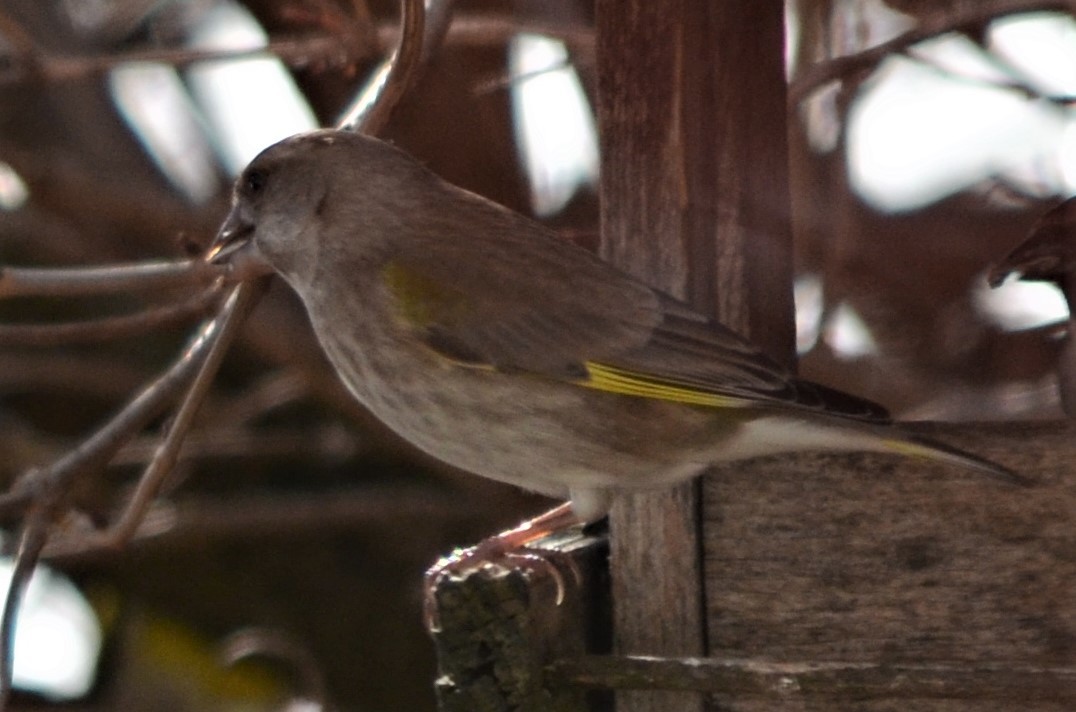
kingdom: Plantae
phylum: Tracheophyta
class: Liliopsida
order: Poales
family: Poaceae
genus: Chloris
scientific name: Chloris chloris
